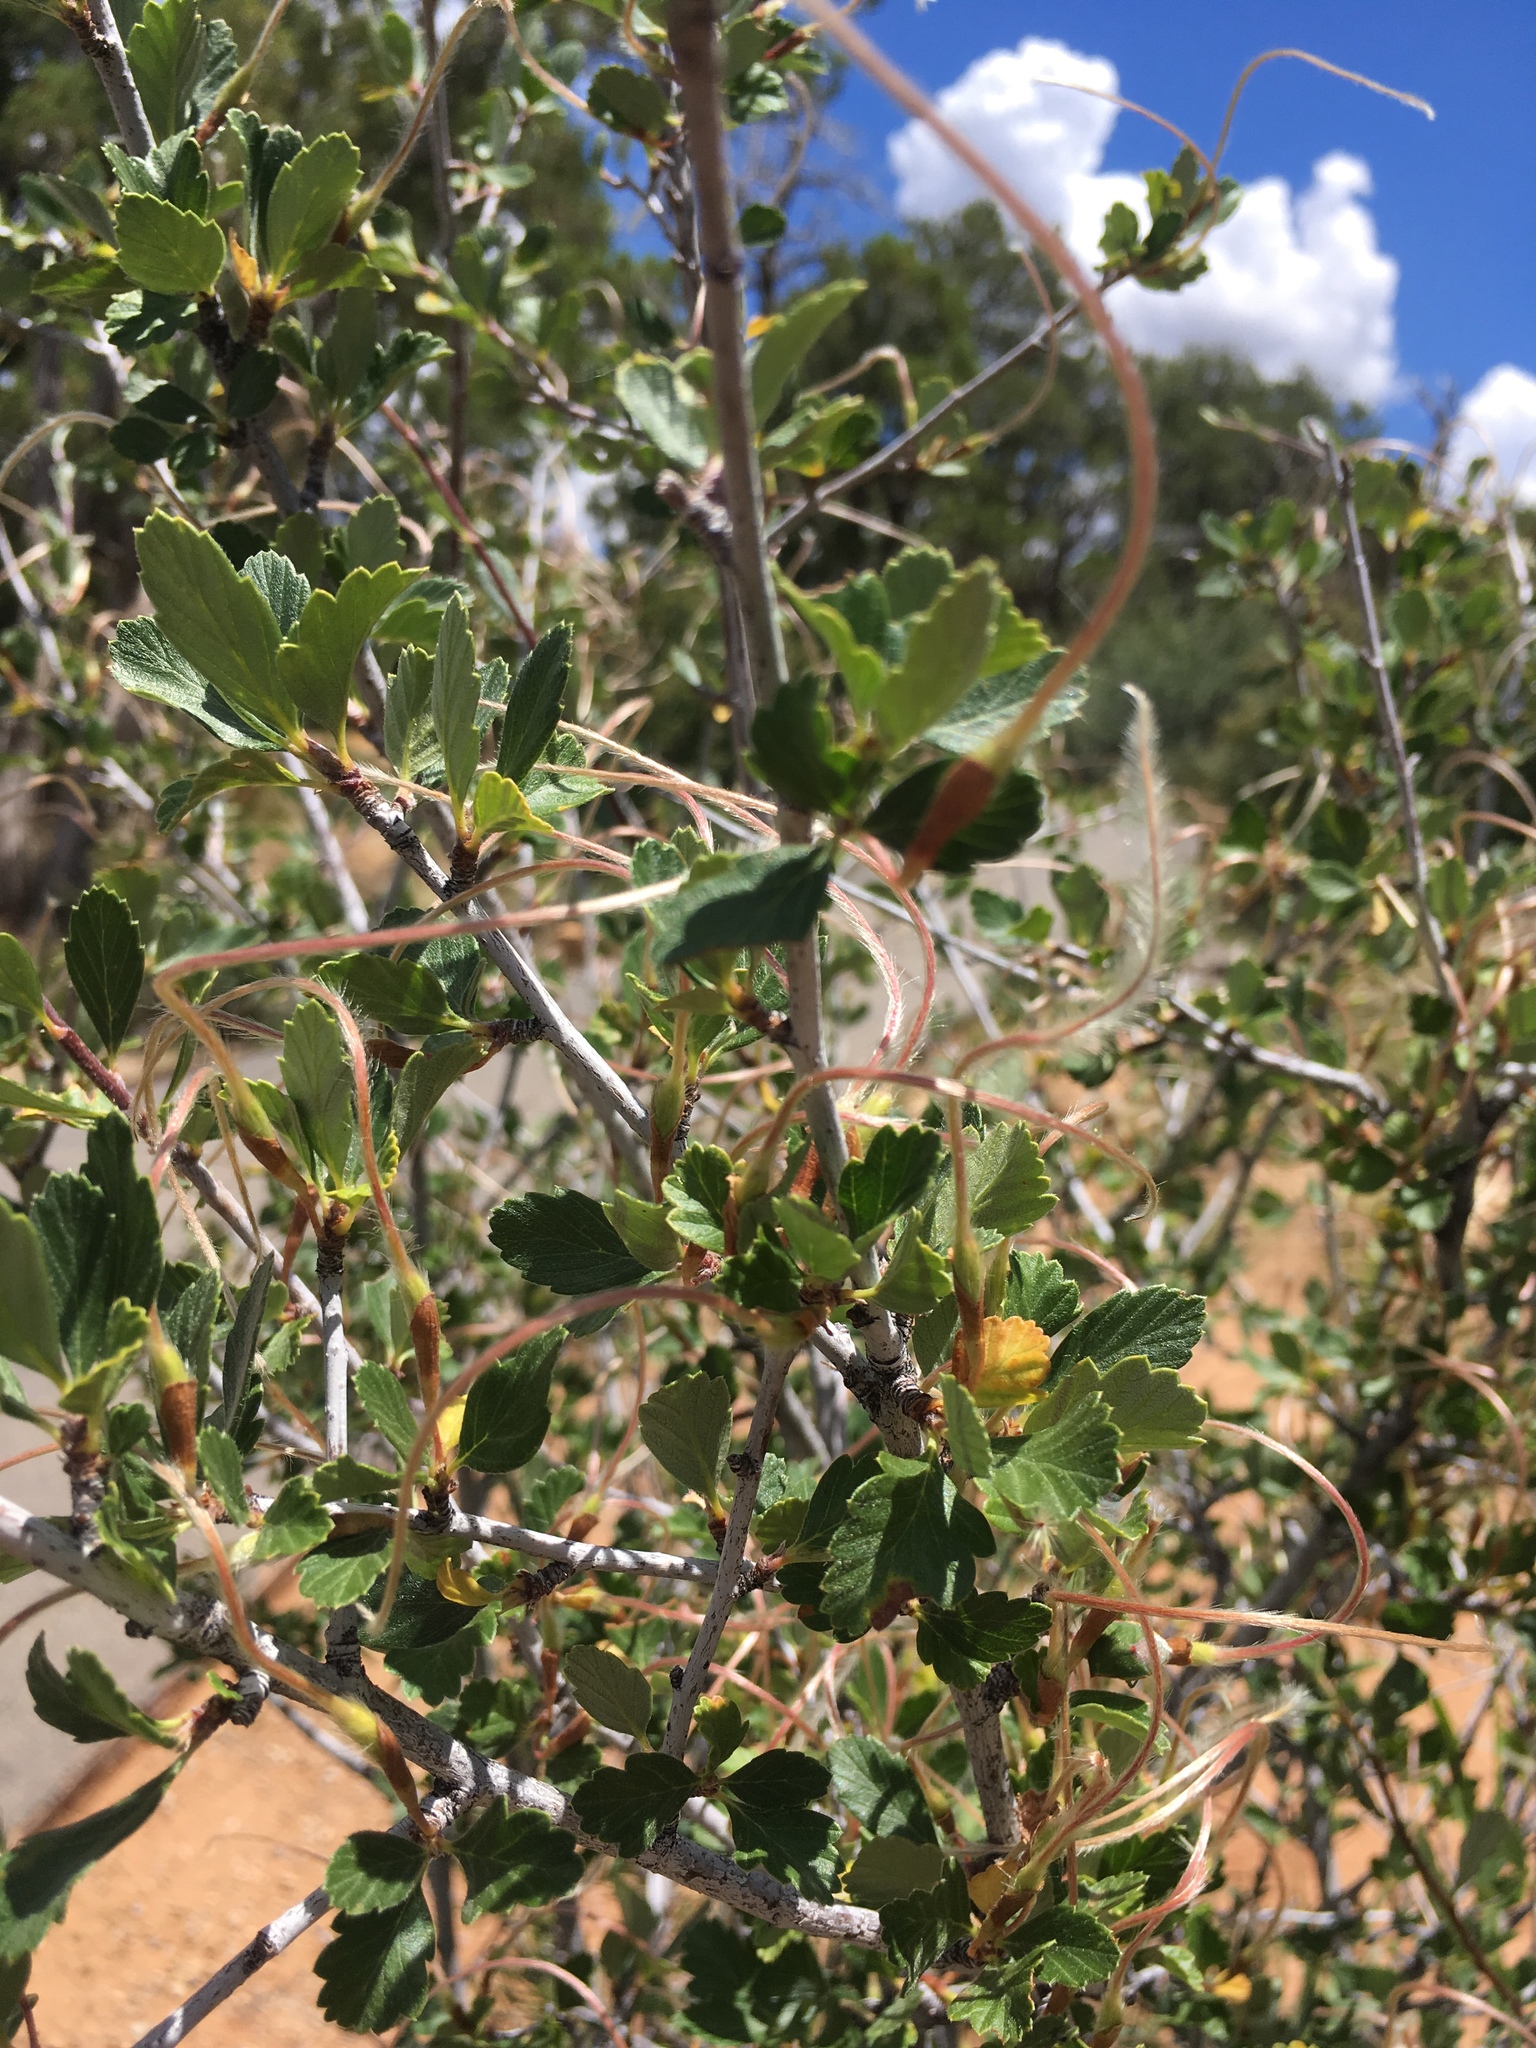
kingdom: Plantae
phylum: Tracheophyta
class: Magnoliopsida
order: Rosales
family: Rosaceae
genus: Cercocarpus
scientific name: Cercocarpus montanus
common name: Alder-leaf cercocarpus
